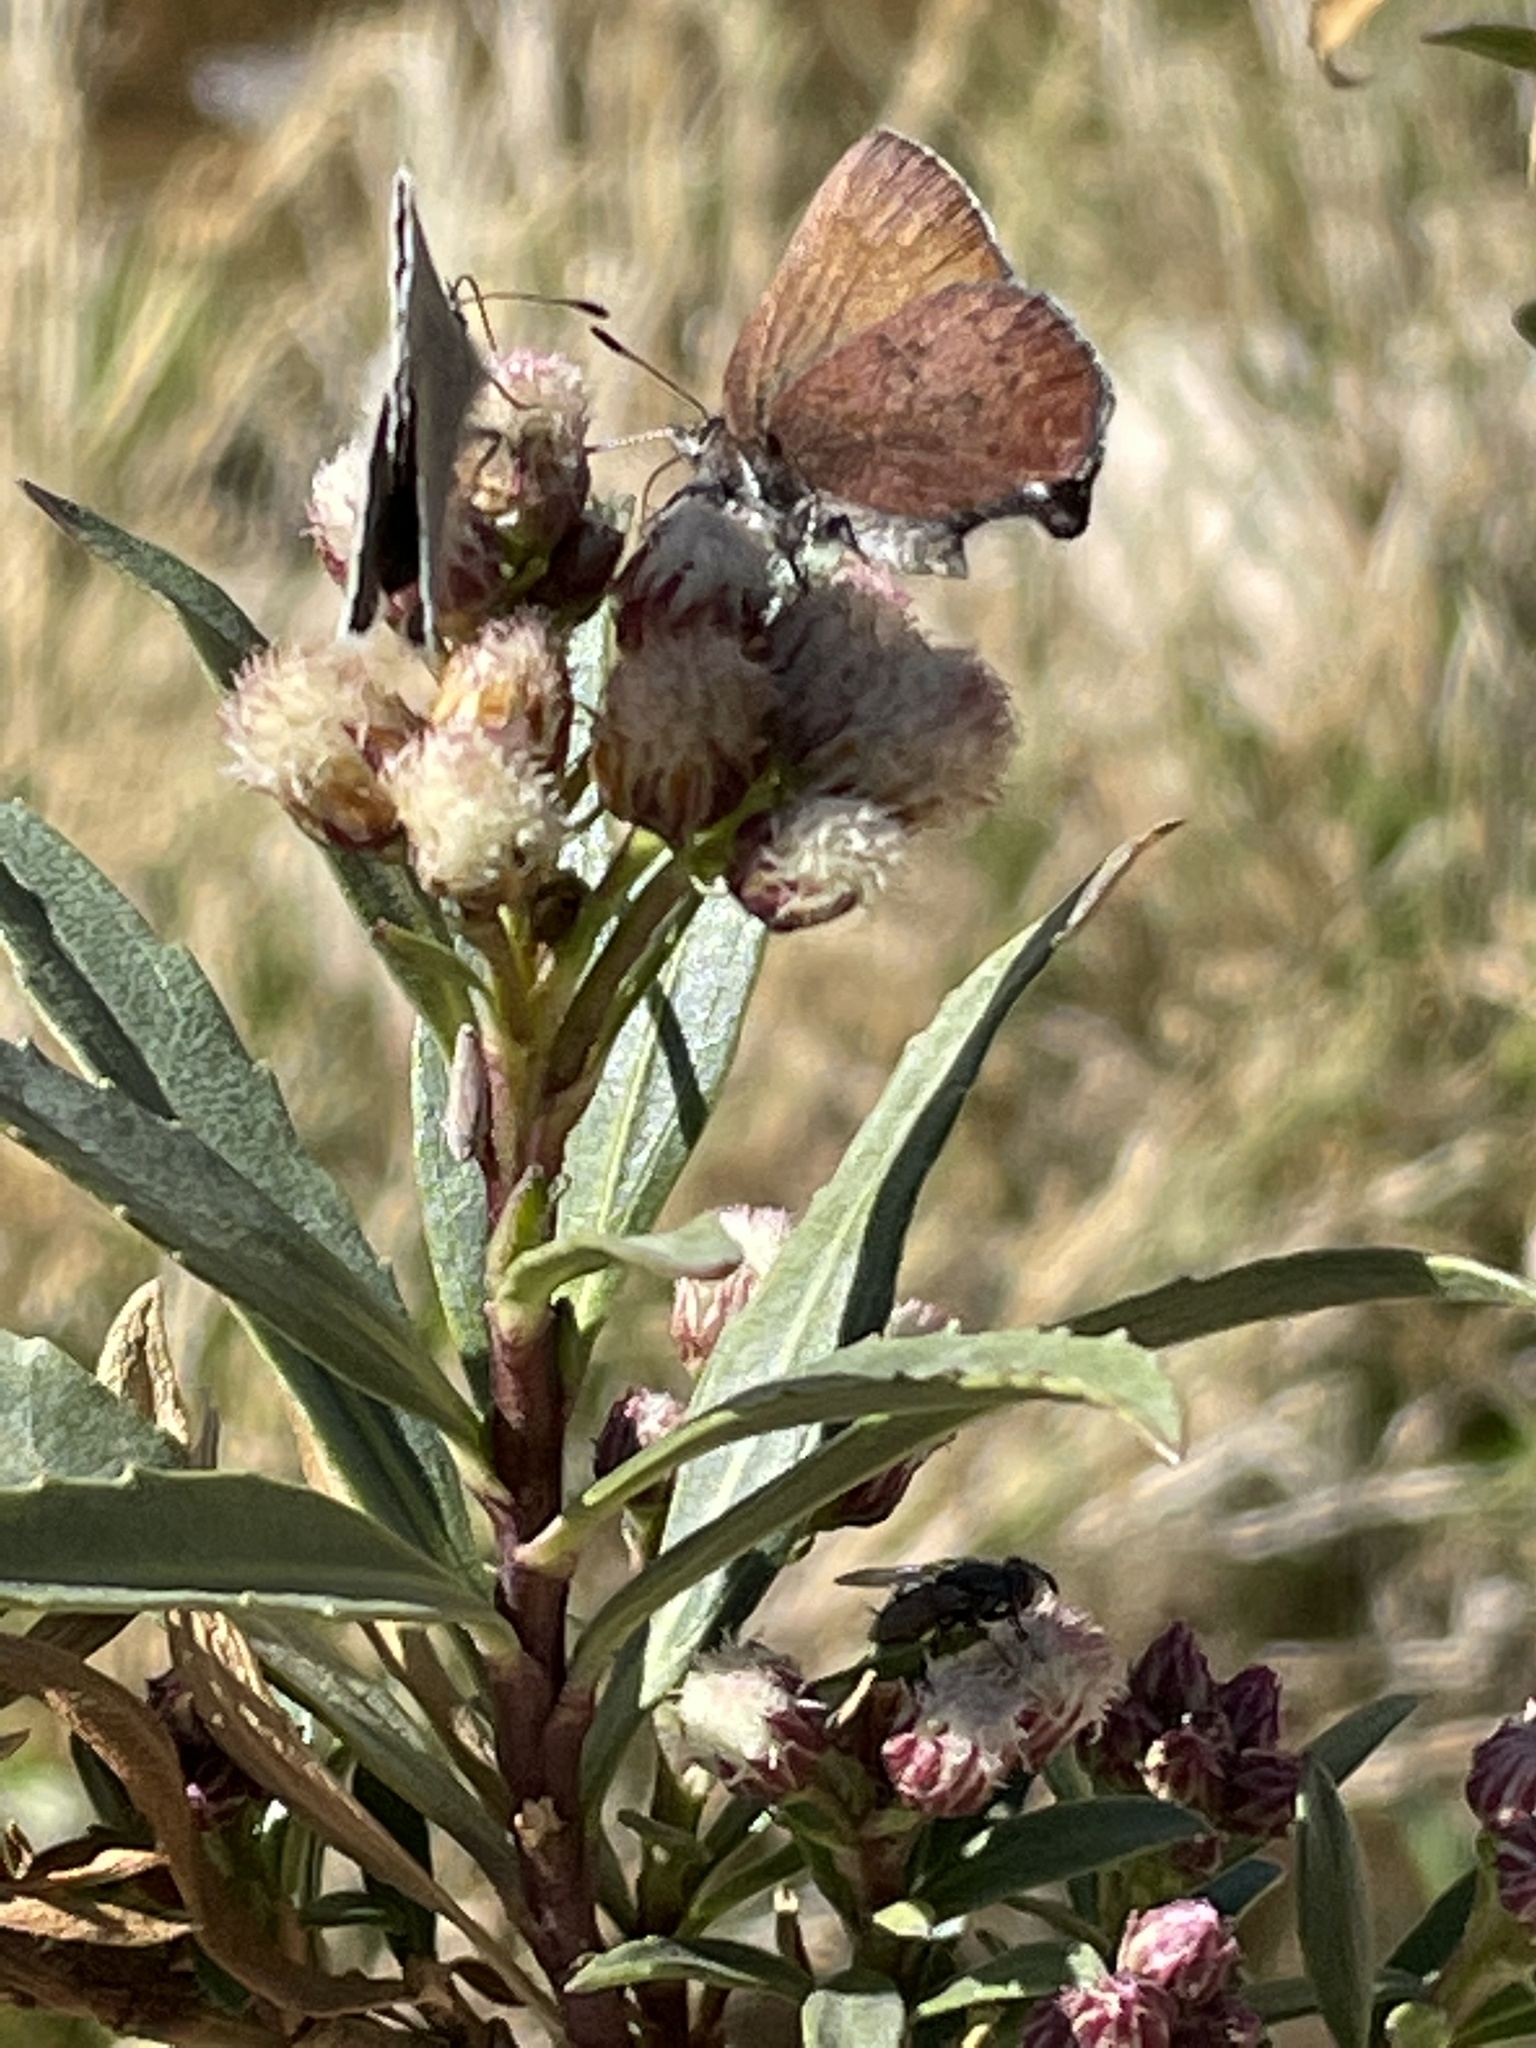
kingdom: Animalia
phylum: Arthropoda
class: Insecta
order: Lepidoptera
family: Lycaenidae
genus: Incisalia
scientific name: Incisalia irioides
